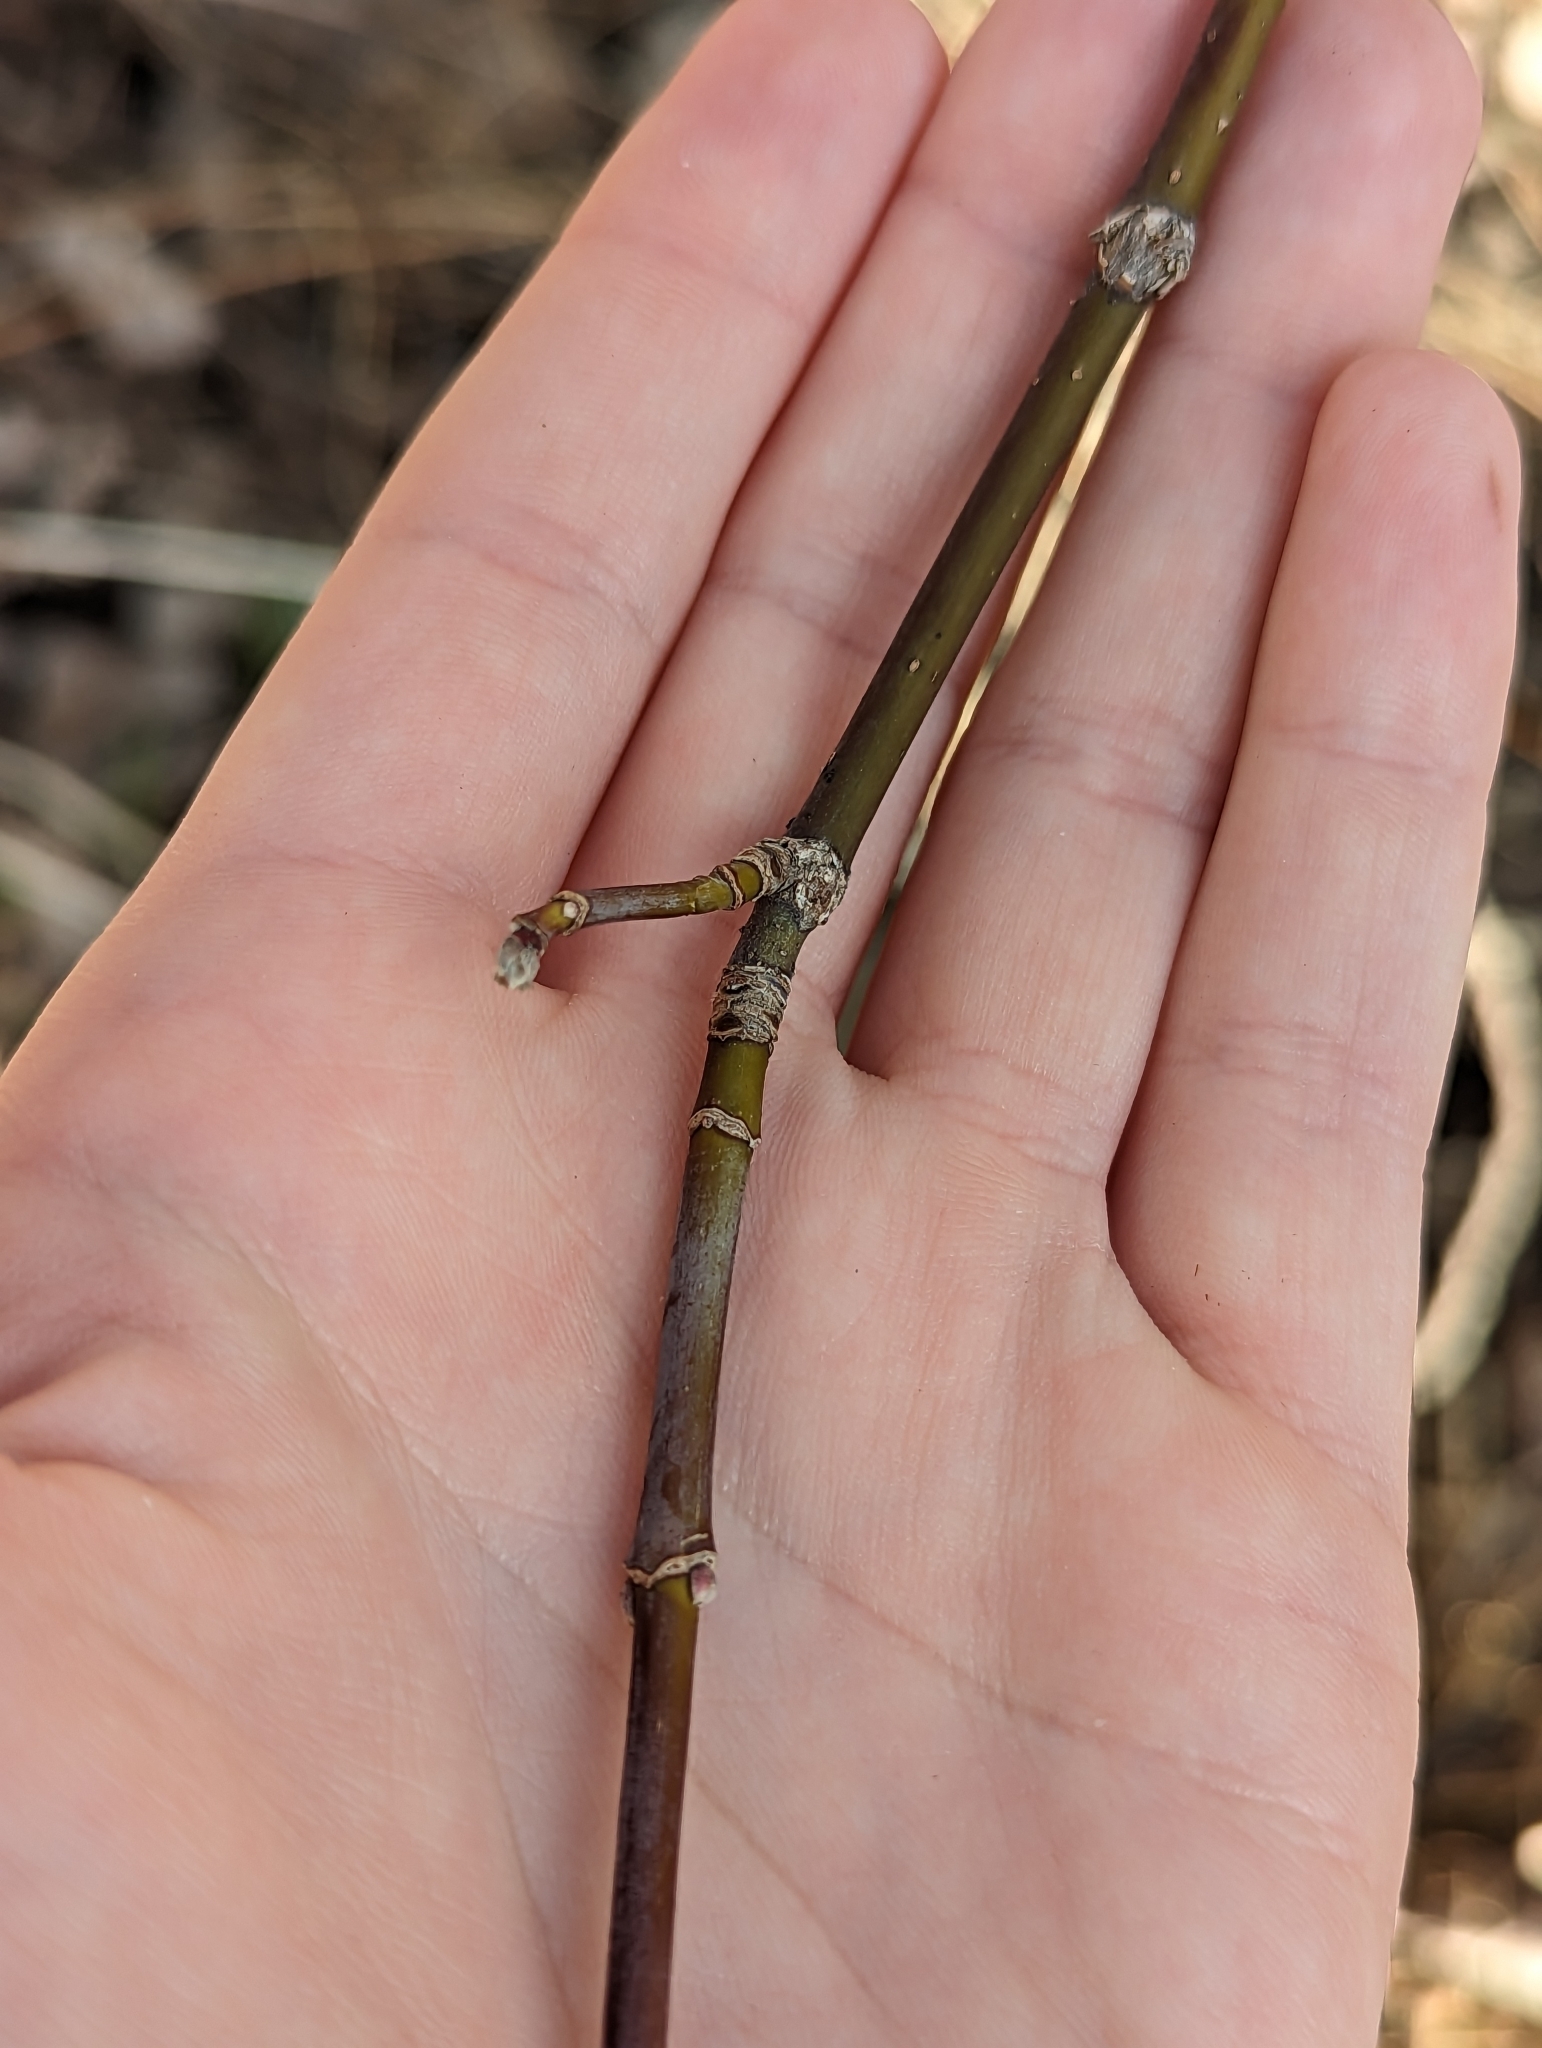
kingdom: Plantae
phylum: Tracheophyta
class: Magnoliopsida
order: Sapindales
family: Sapindaceae
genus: Acer
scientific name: Acer negundo
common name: Ashleaf maple
